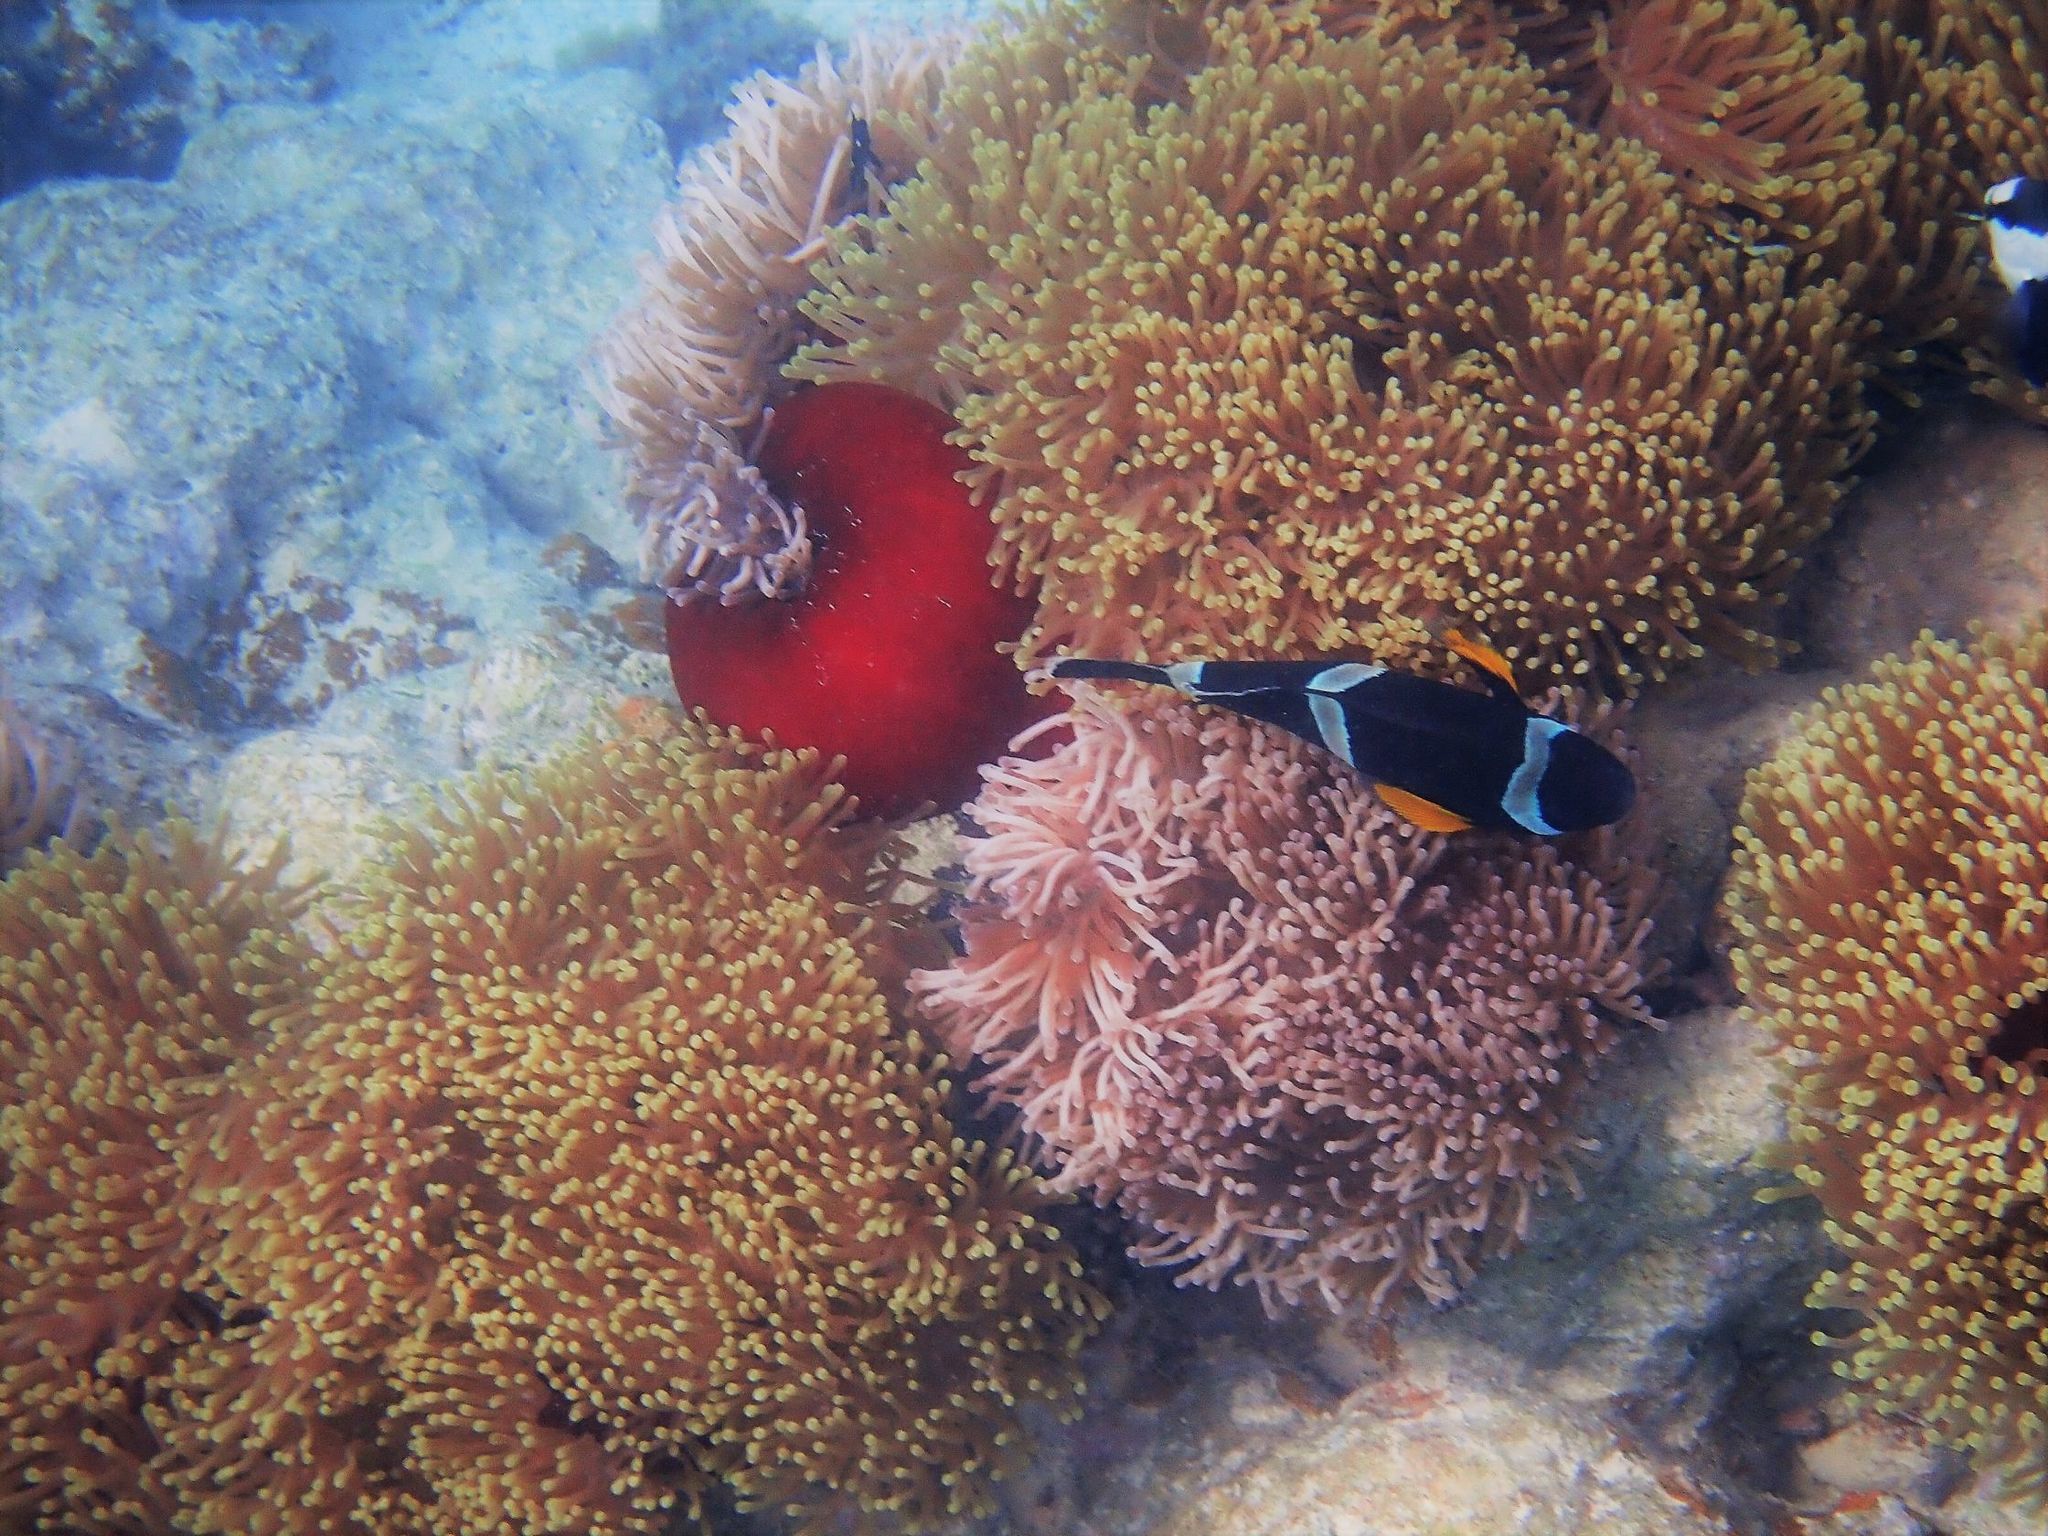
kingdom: Animalia
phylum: Chordata
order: Perciformes
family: Pomacentridae
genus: Amphiprion
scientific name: Amphiprion chrysogaster
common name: Mauritian anemonefish
